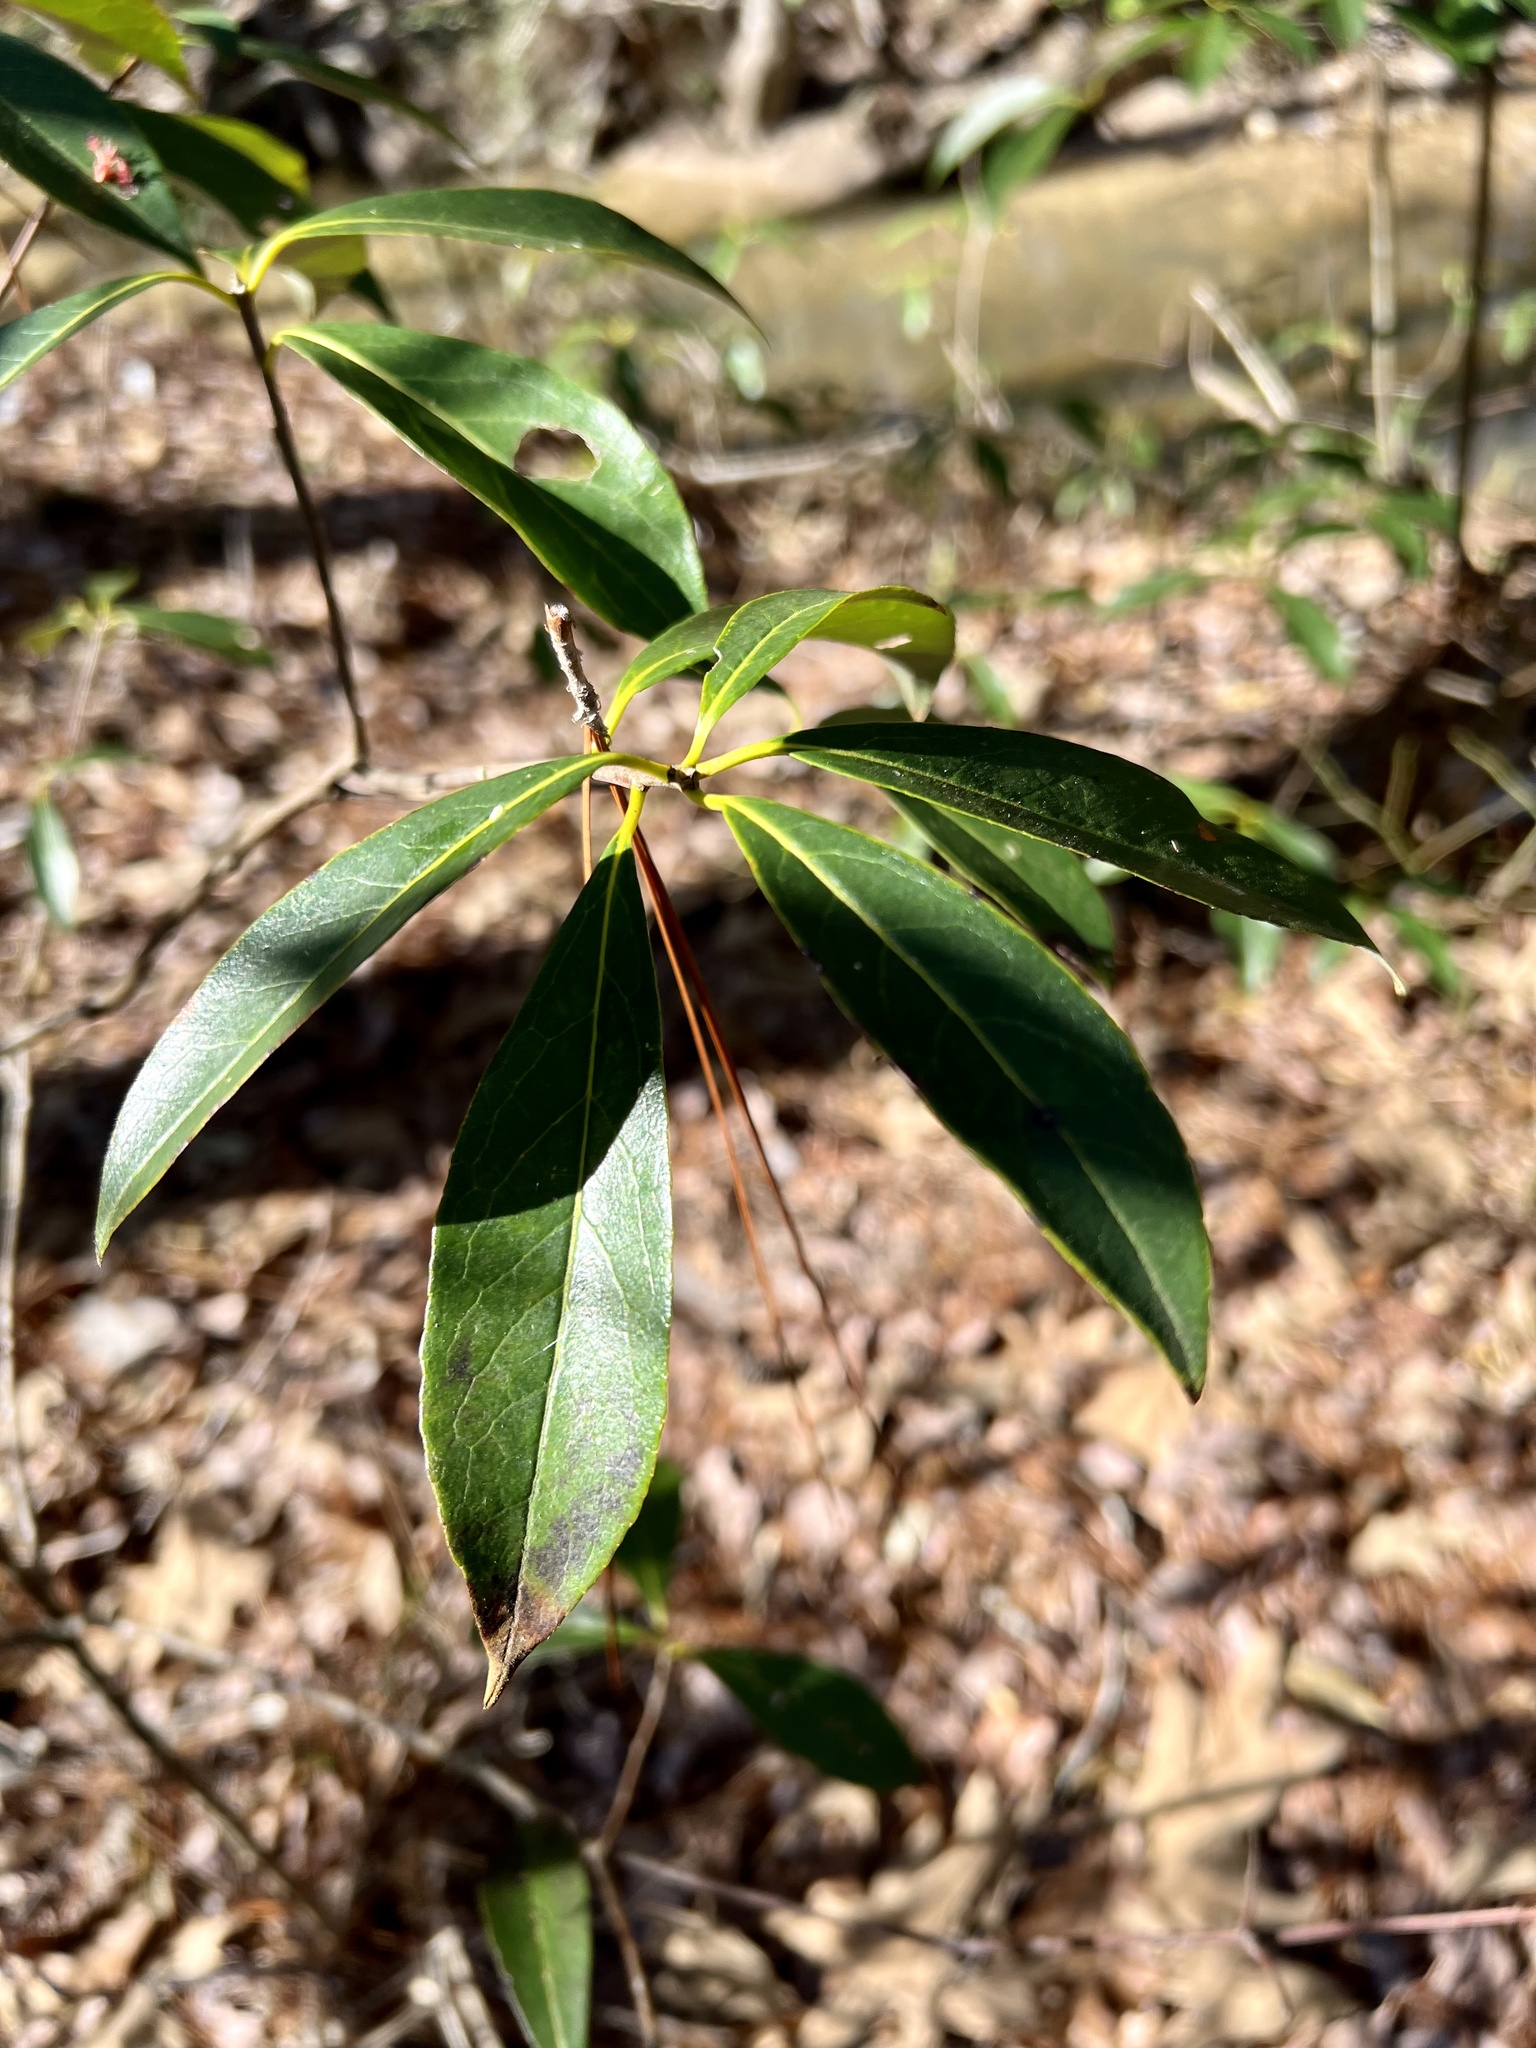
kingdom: Plantae
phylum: Tracheophyta
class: Magnoliopsida
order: Ericales
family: Symplocaceae
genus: Symplocos
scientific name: Symplocos tinctoria
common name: Horse-sugar
